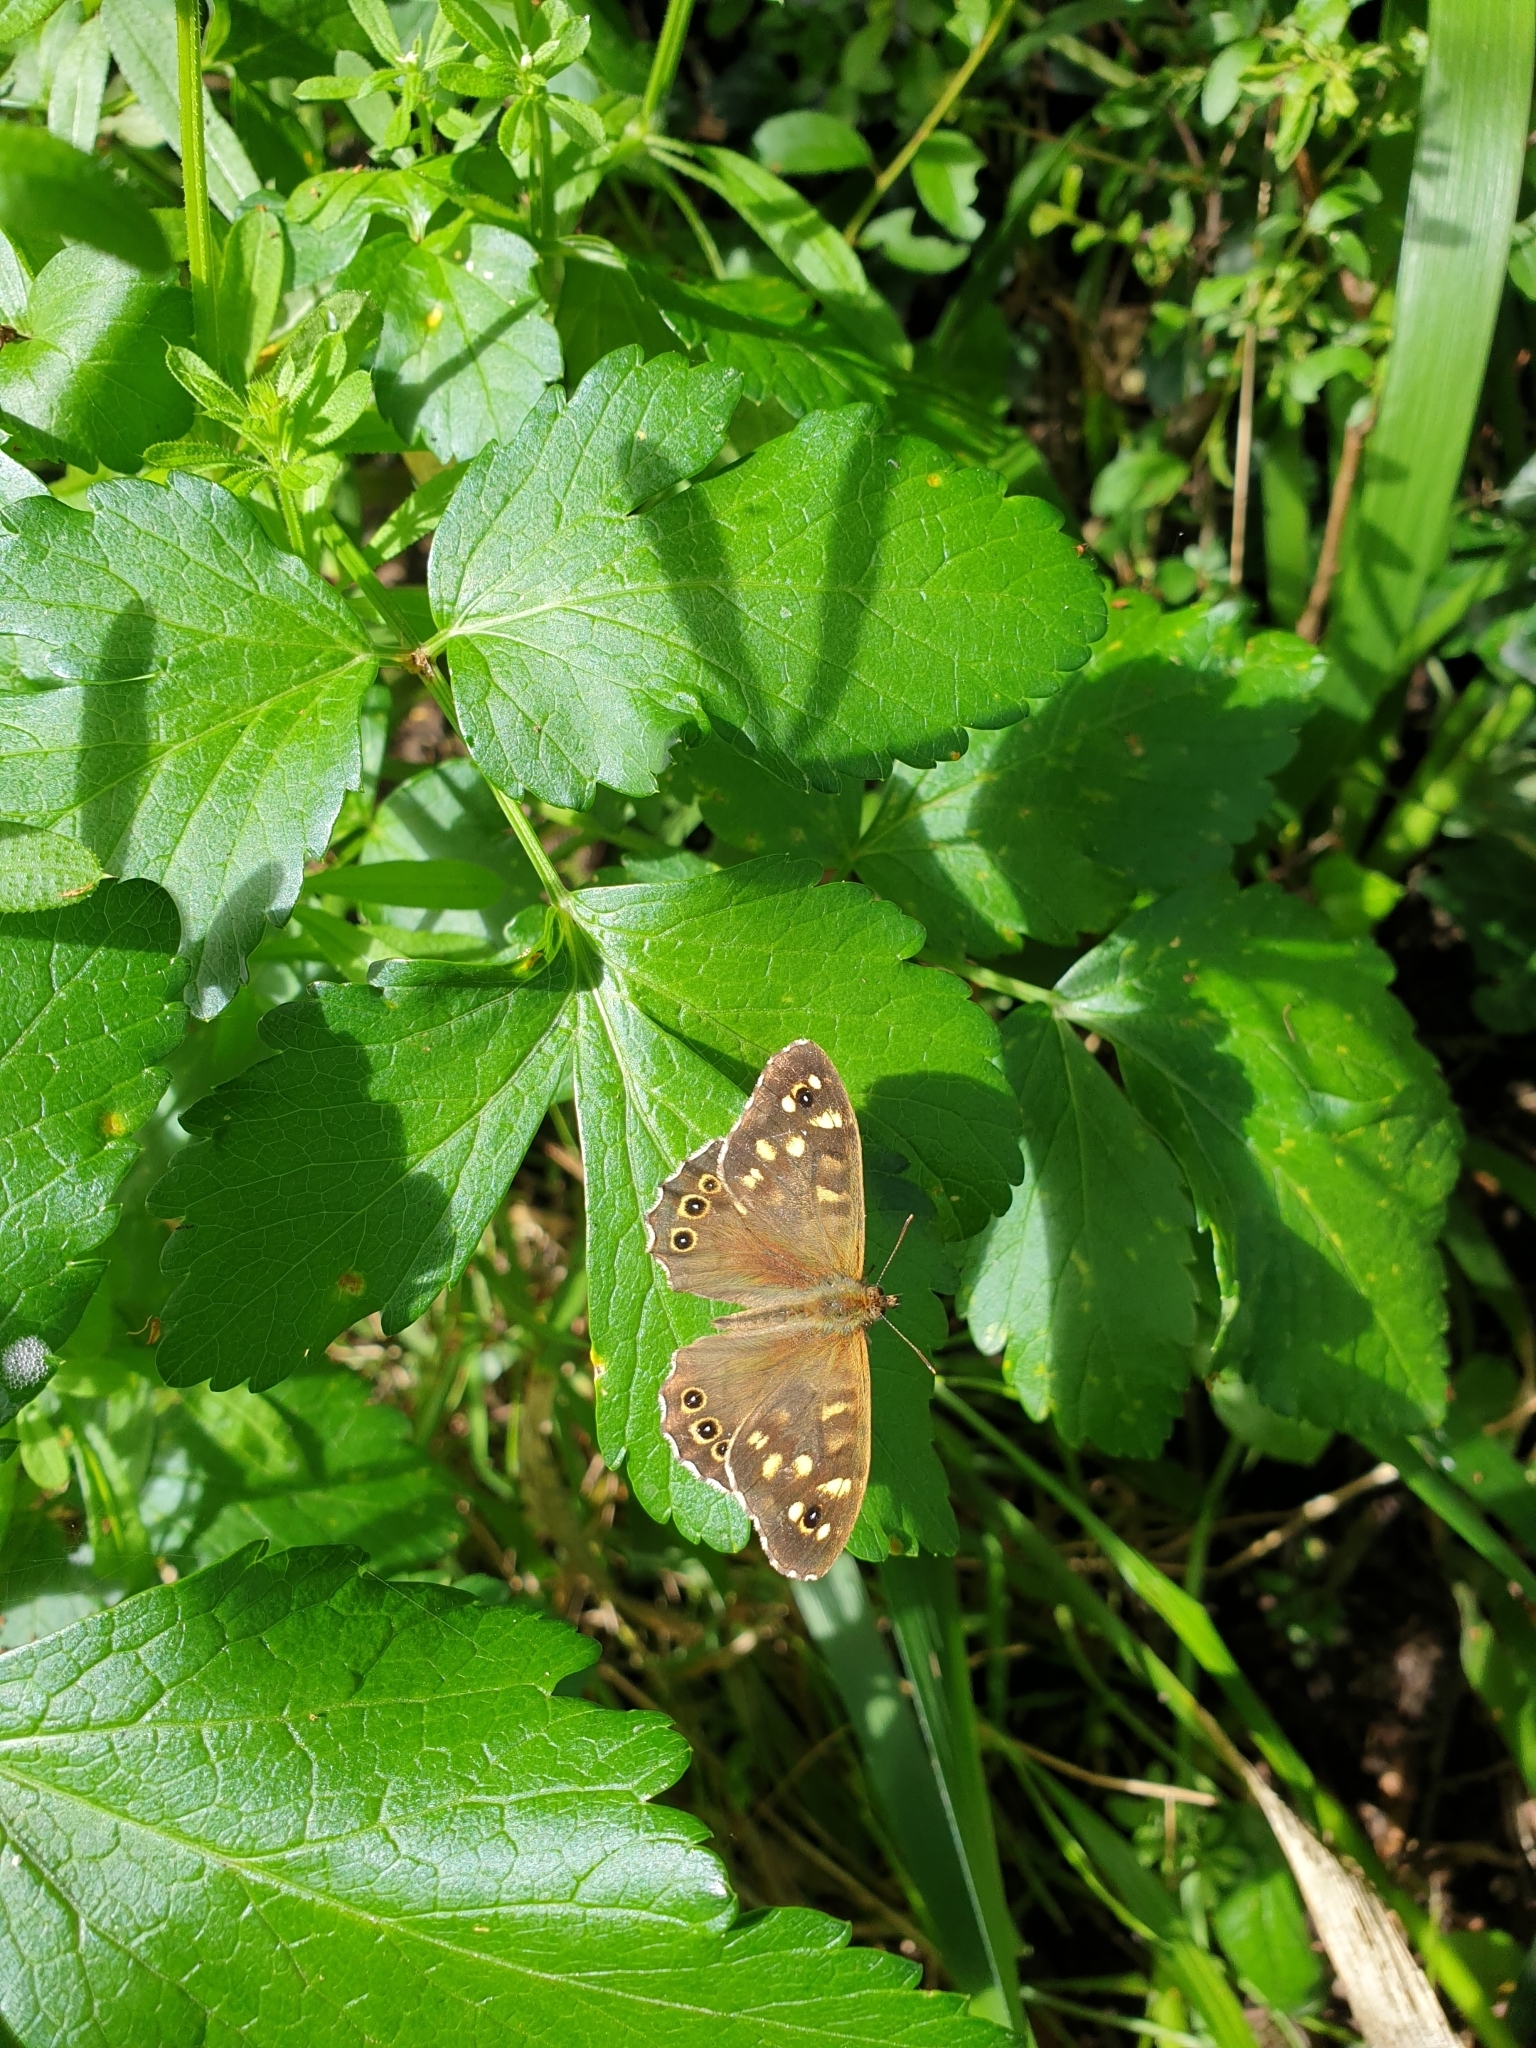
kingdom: Animalia
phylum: Arthropoda
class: Insecta
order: Lepidoptera
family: Nymphalidae
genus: Pararge
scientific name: Pararge aegeria
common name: Speckled wood
